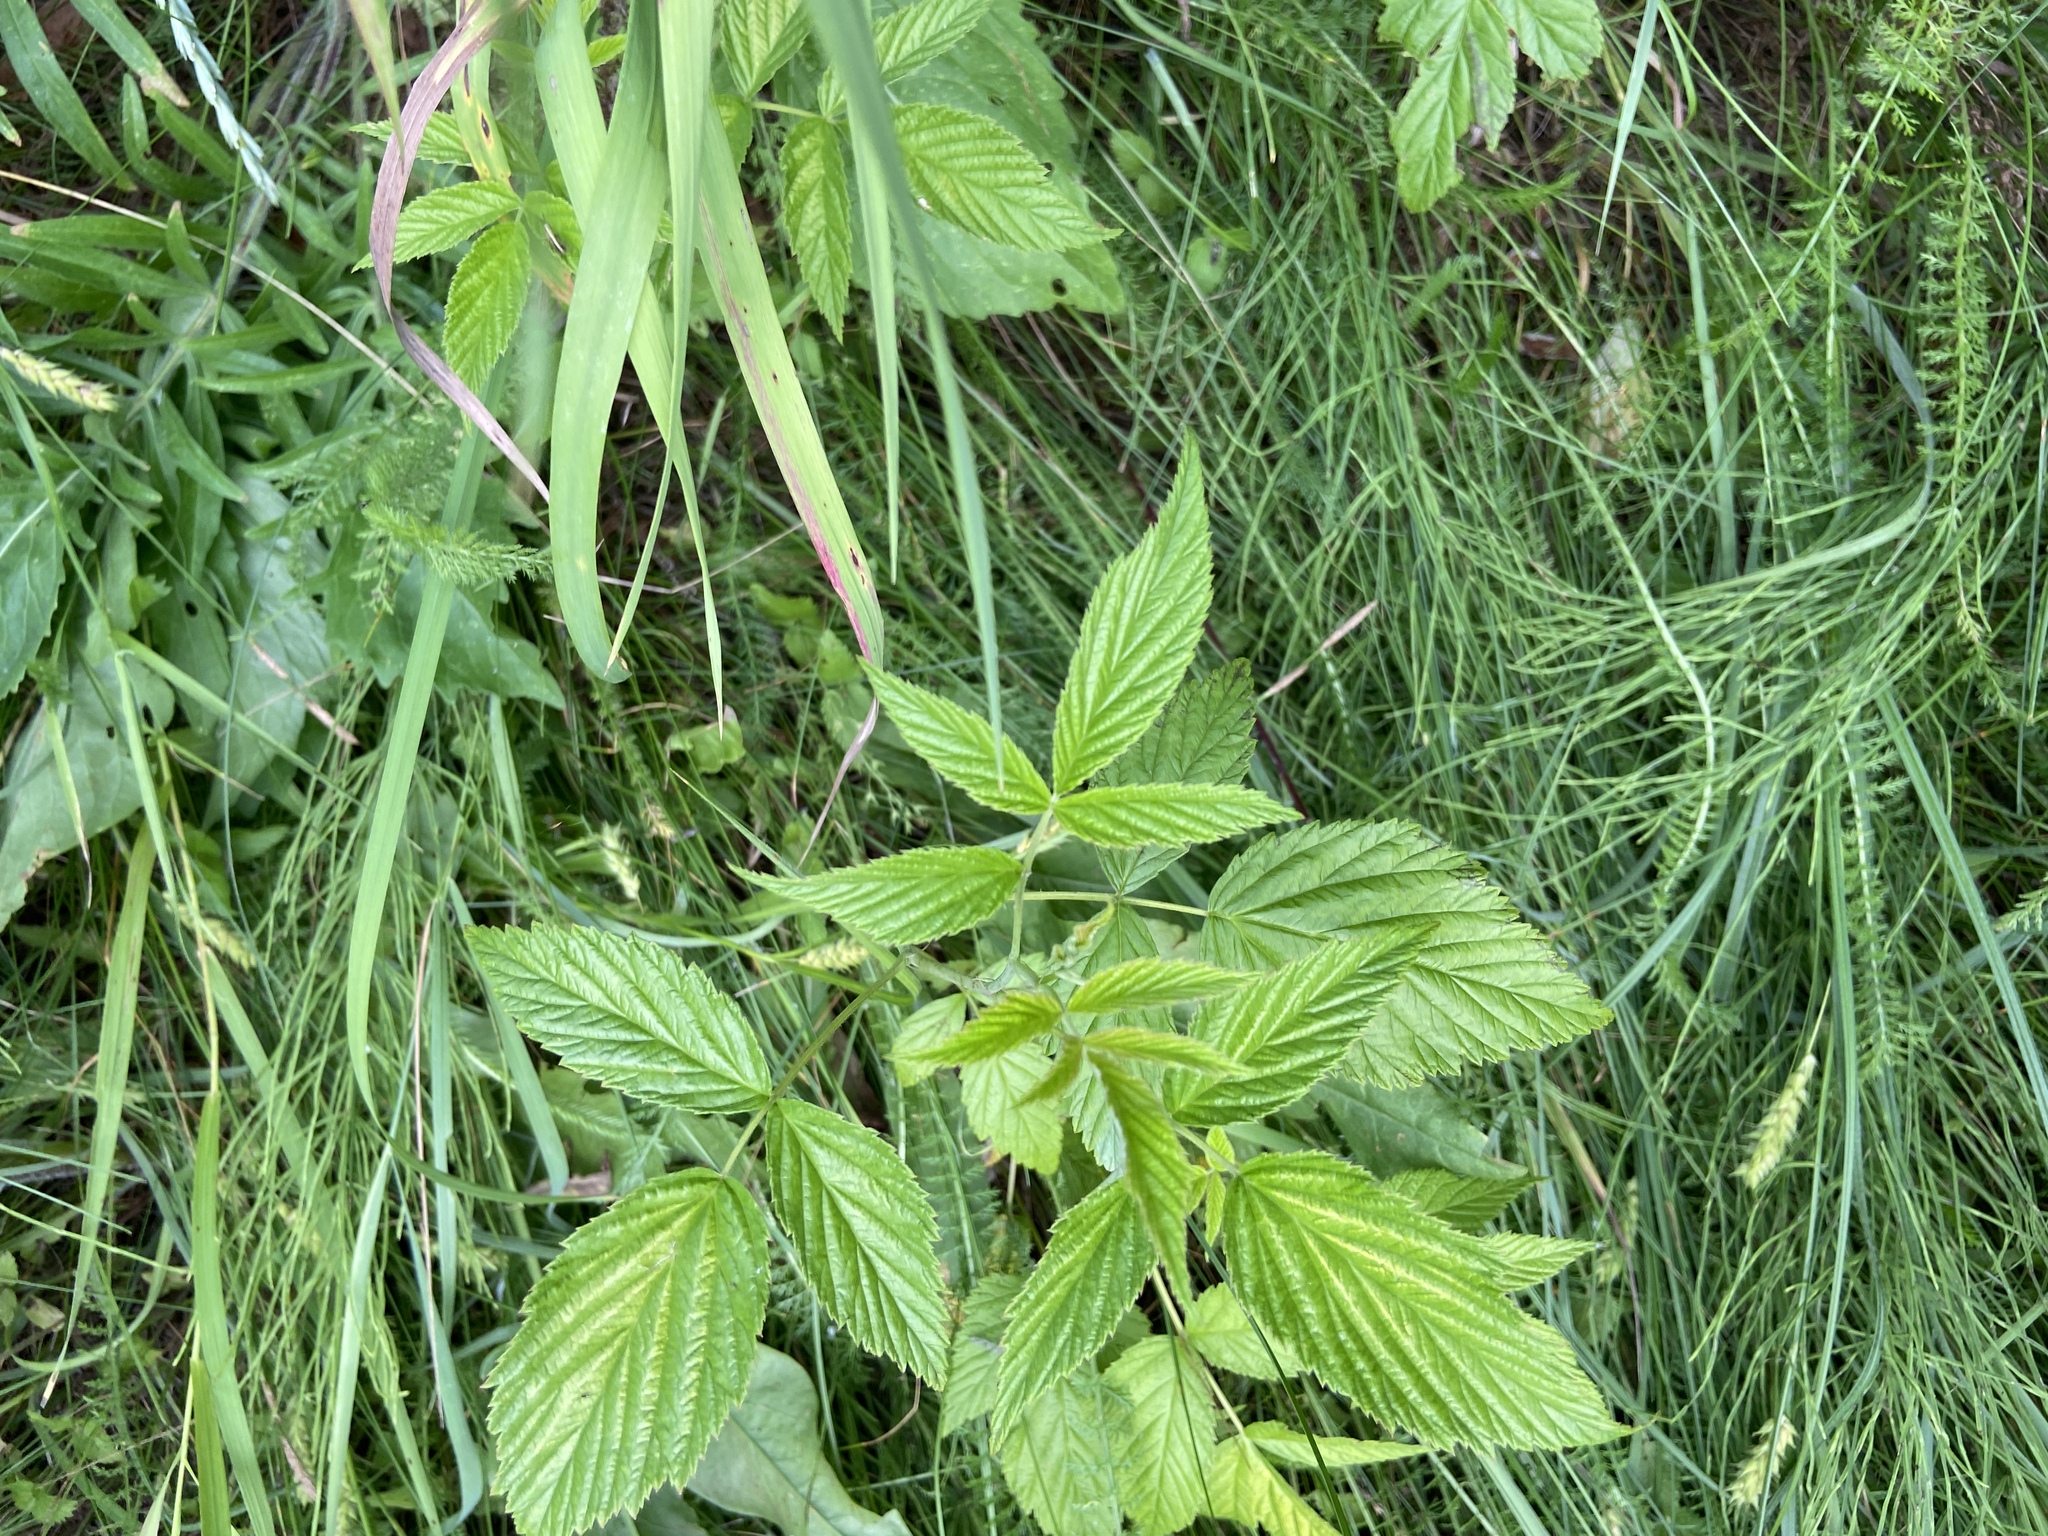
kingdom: Plantae
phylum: Tracheophyta
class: Magnoliopsida
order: Rosales
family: Rosaceae
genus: Rubus
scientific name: Rubus idaeus
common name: Raspberry
